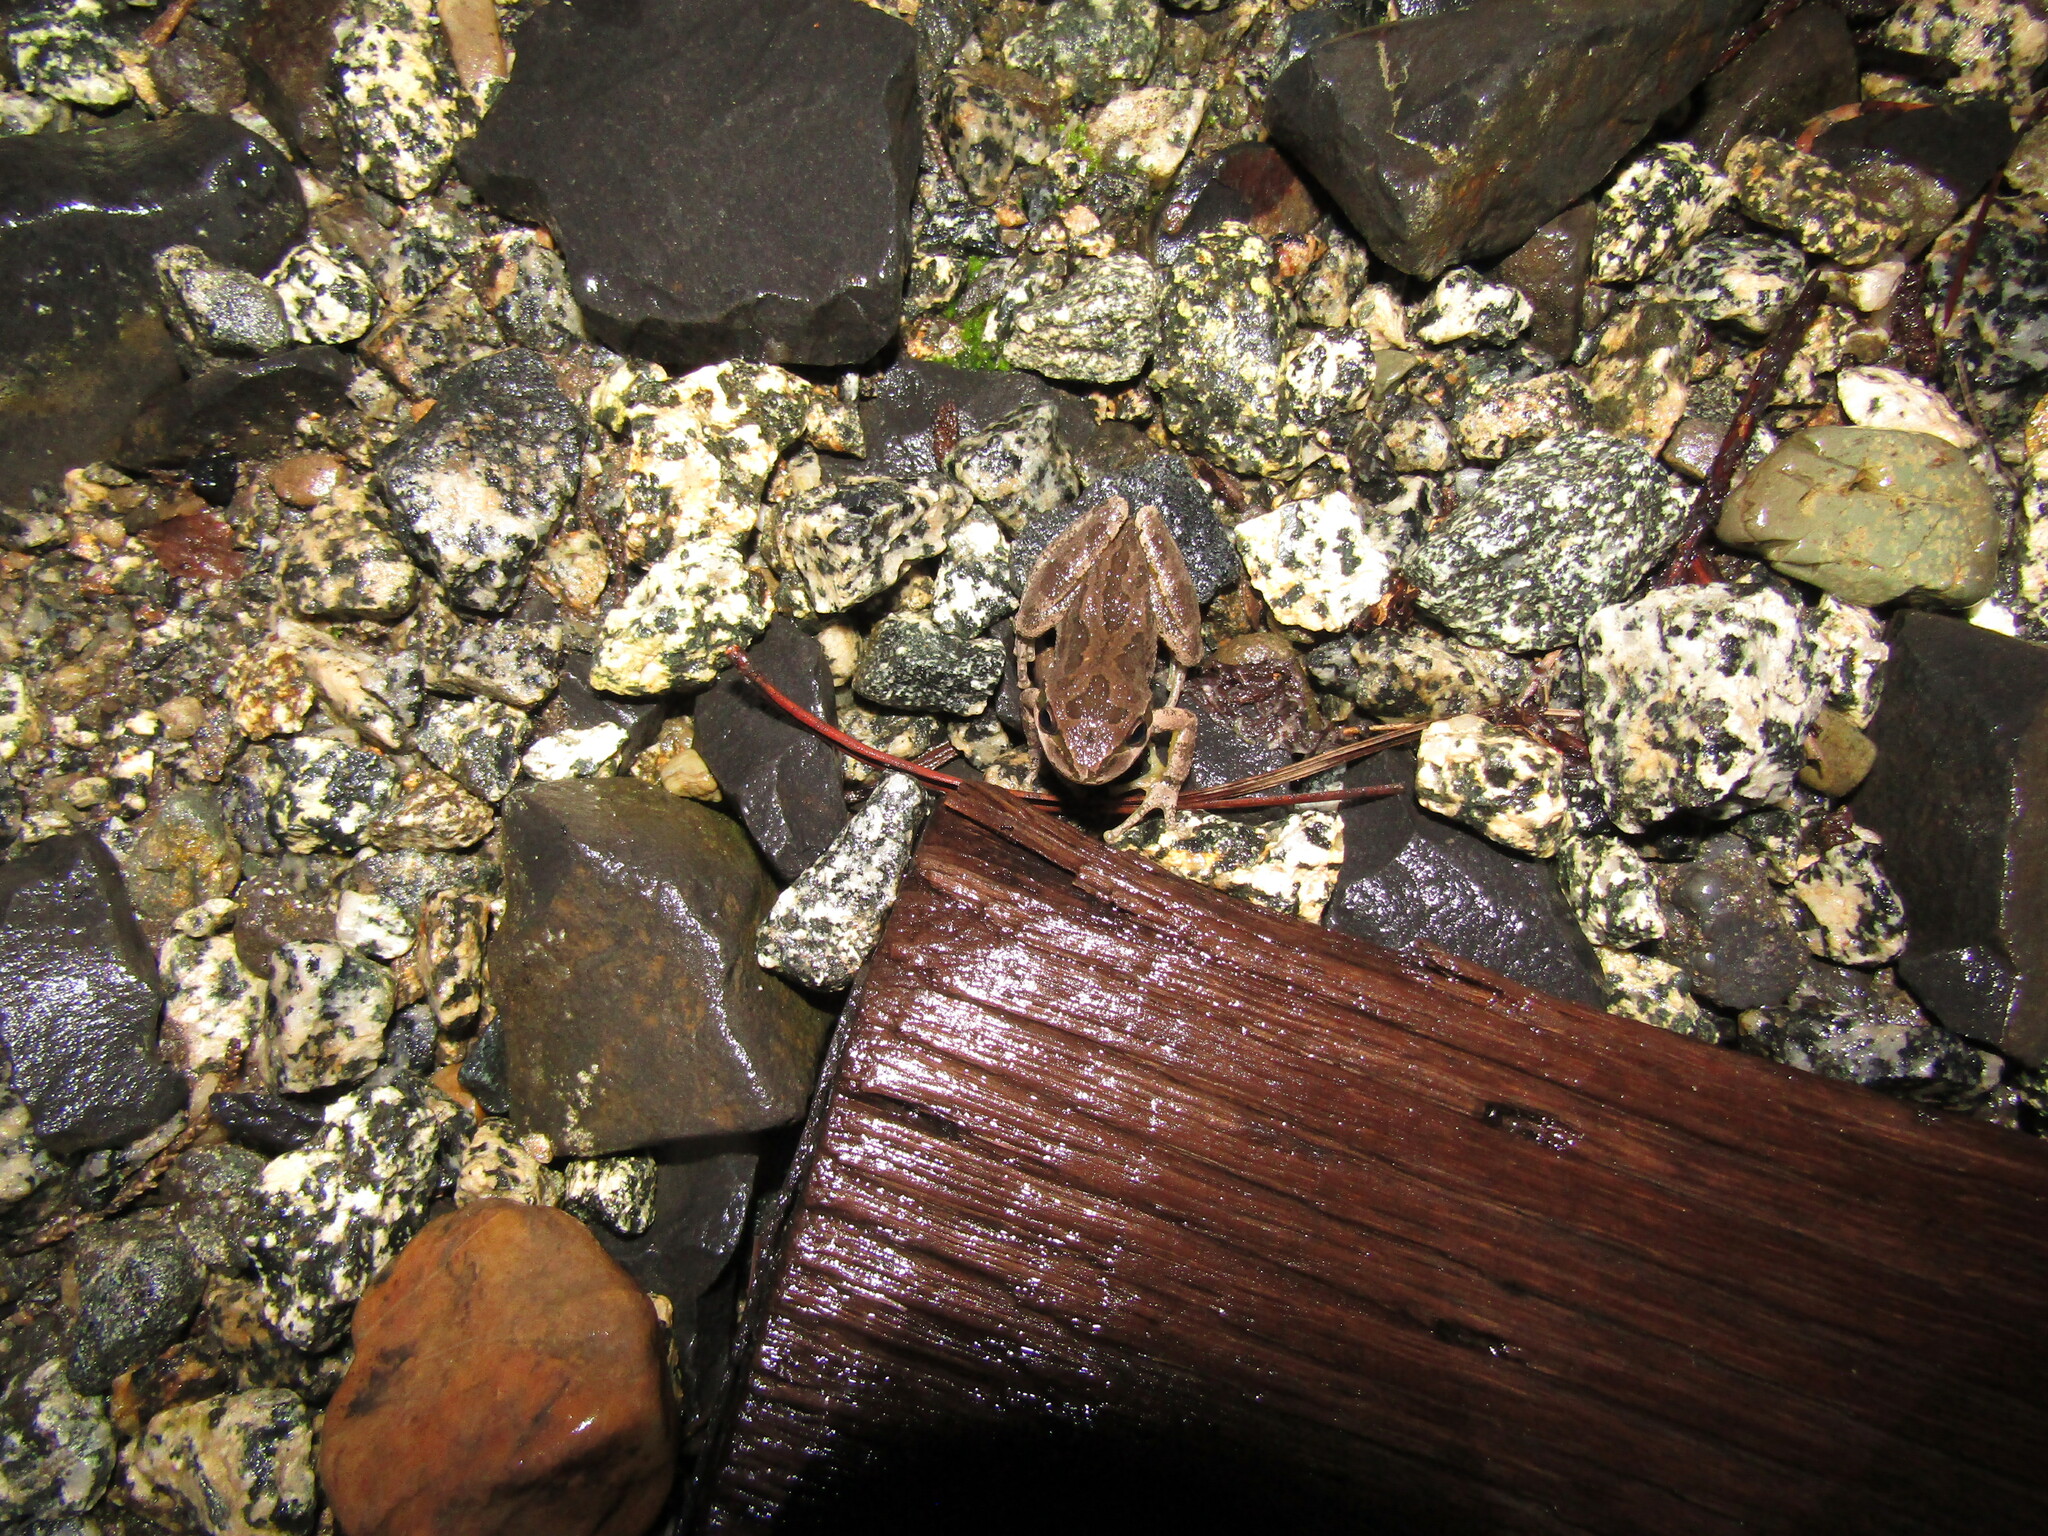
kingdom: Animalia
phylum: Chordata
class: Amphibia
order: Anura
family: Hylidae
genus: Pseudacris
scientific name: Pseudacris regilla
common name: Pacific chorus frog
